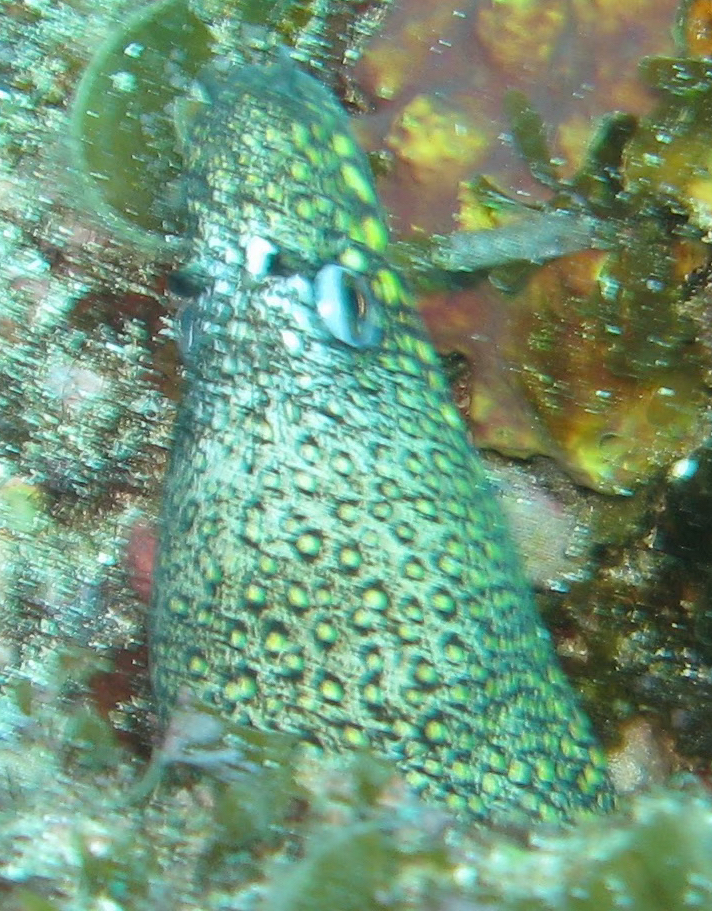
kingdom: Animalia
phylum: Chordata
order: Anguilliformes
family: Muraenidae
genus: Muraena
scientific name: Muraena lentiginosa
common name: Jewel moray
